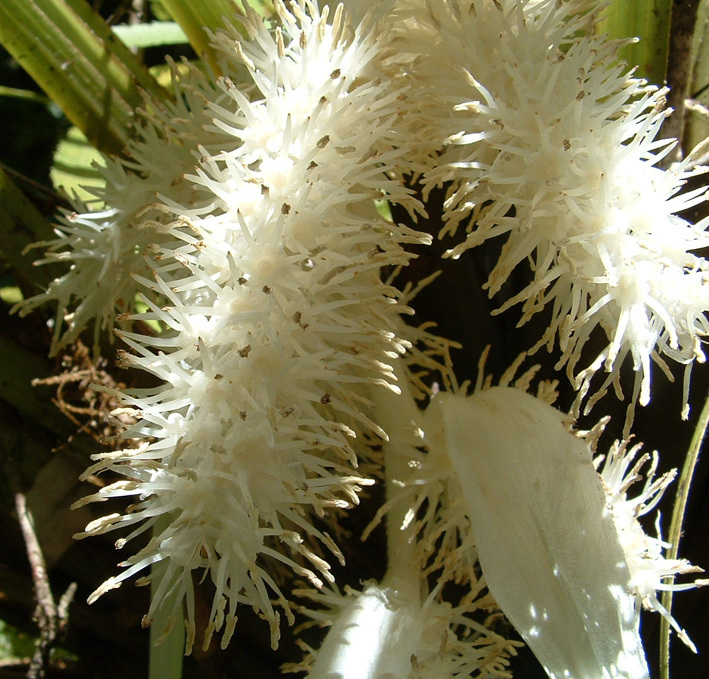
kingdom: Plantae
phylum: Tracheophyta
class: Liliopsida
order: Asparagales
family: Asteliaceae
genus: Astelia
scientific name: Astelia microsperma
